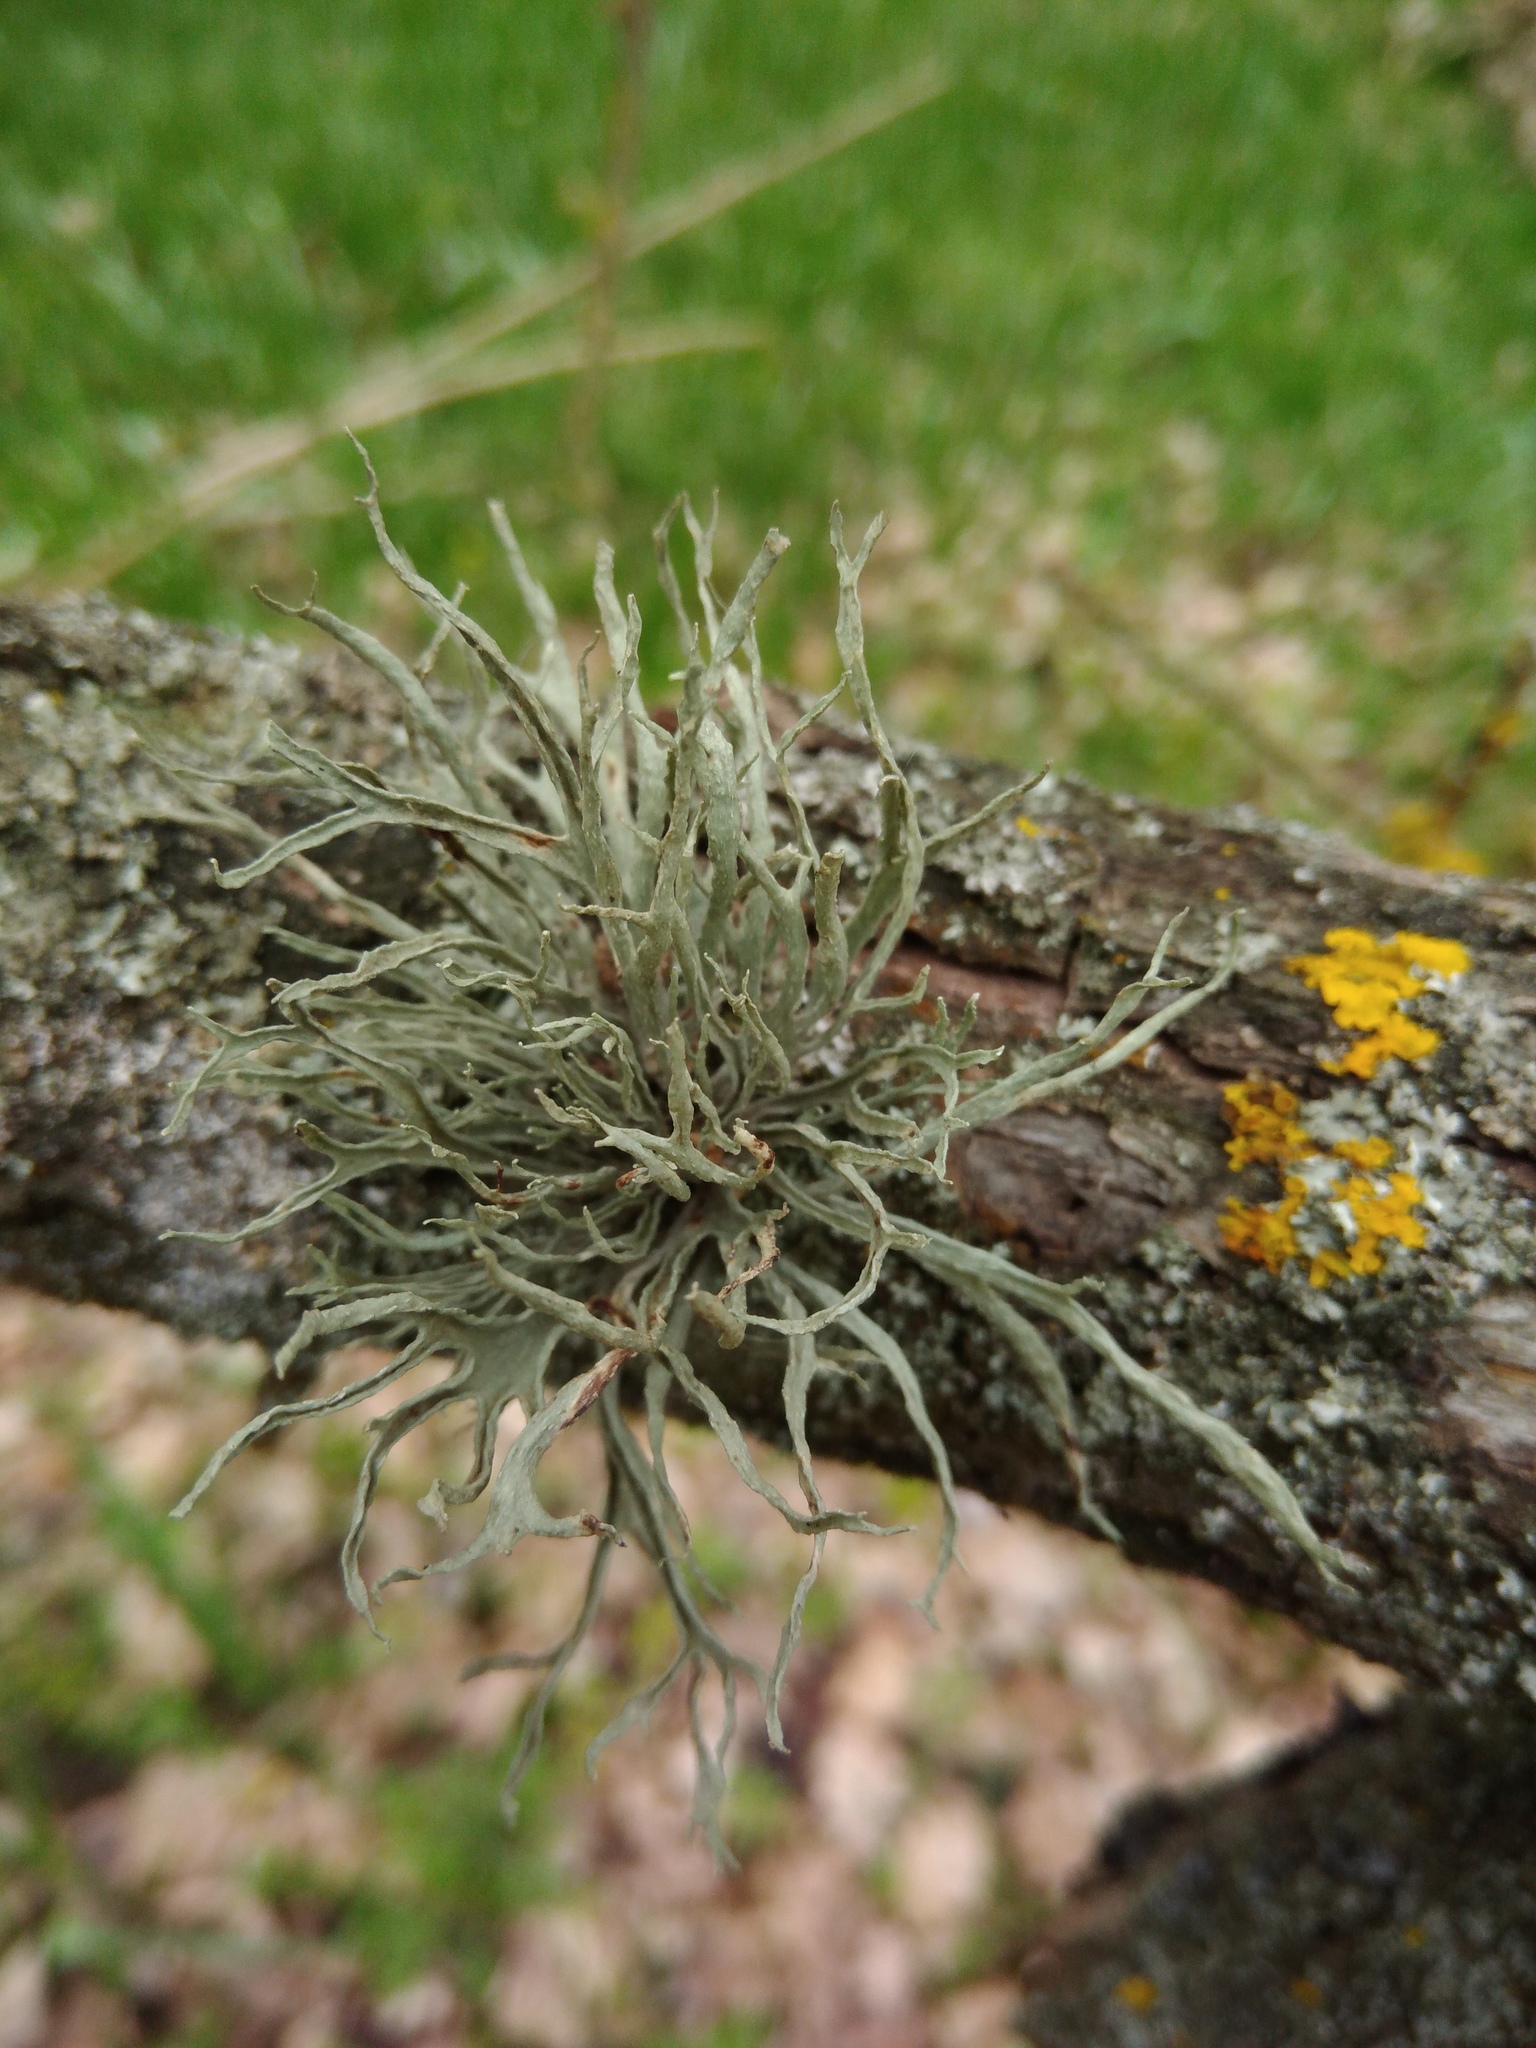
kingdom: Fungi
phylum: Ascomycota
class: Lecanoromycetes
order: Lecanorales
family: Ramalinaceae
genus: Ramalina
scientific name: Ramalina fraxinea
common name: Cartilage lichen
